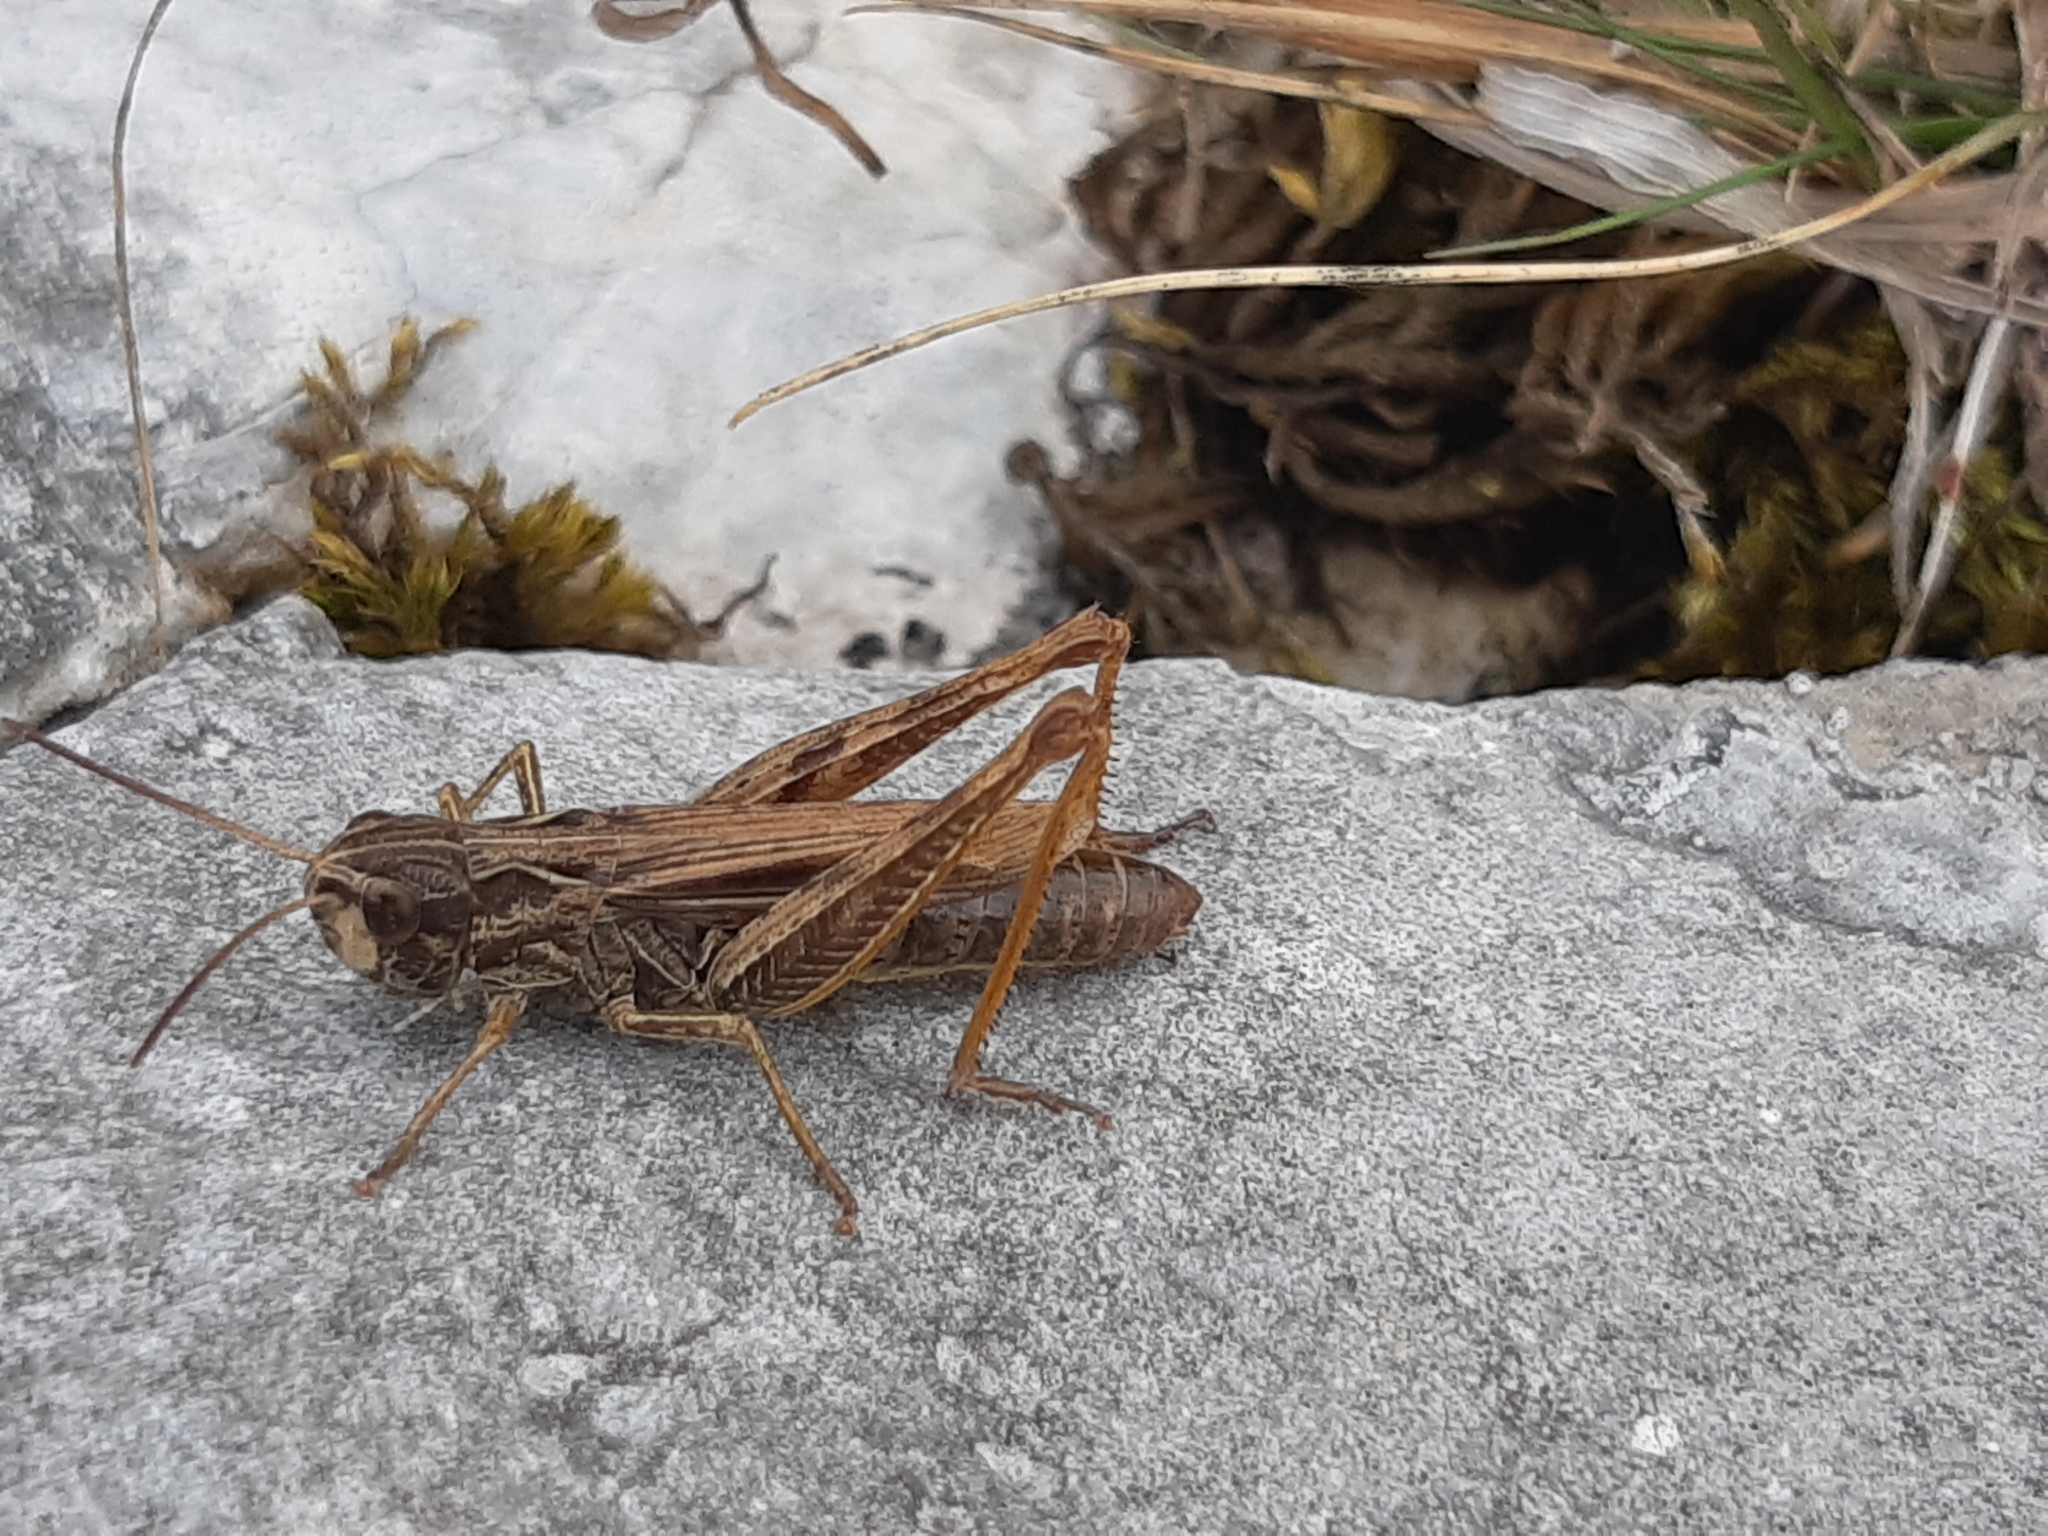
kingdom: Animalia
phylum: Arthropoda
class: Insecta
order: Orthoptera
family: Acrididae
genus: Chorthippus
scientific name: Chorthippus apricarius
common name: Upland field grasshopper
